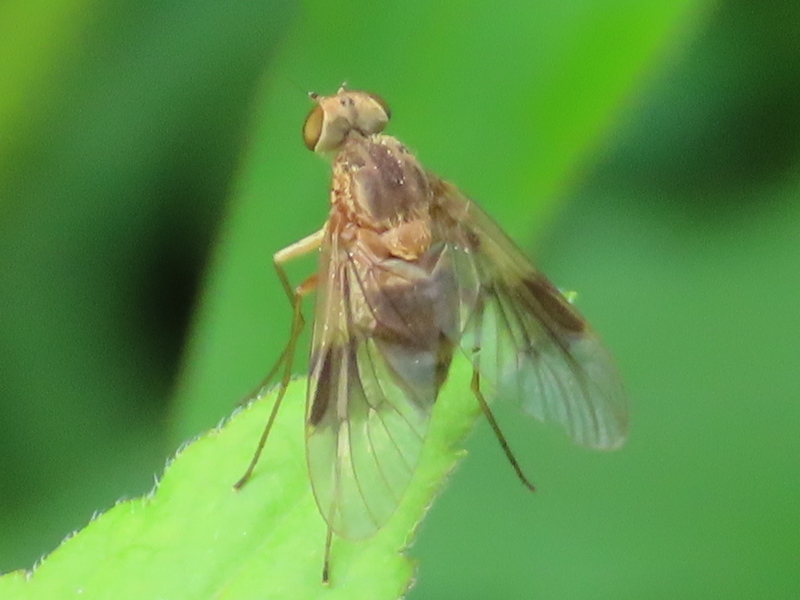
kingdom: Animalia
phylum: Arthropoda
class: Insecta
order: Diptera
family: Rhagionidae
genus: Chrysopilus
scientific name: Chrysopilus quadratus
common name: Quadrate snipe fly
